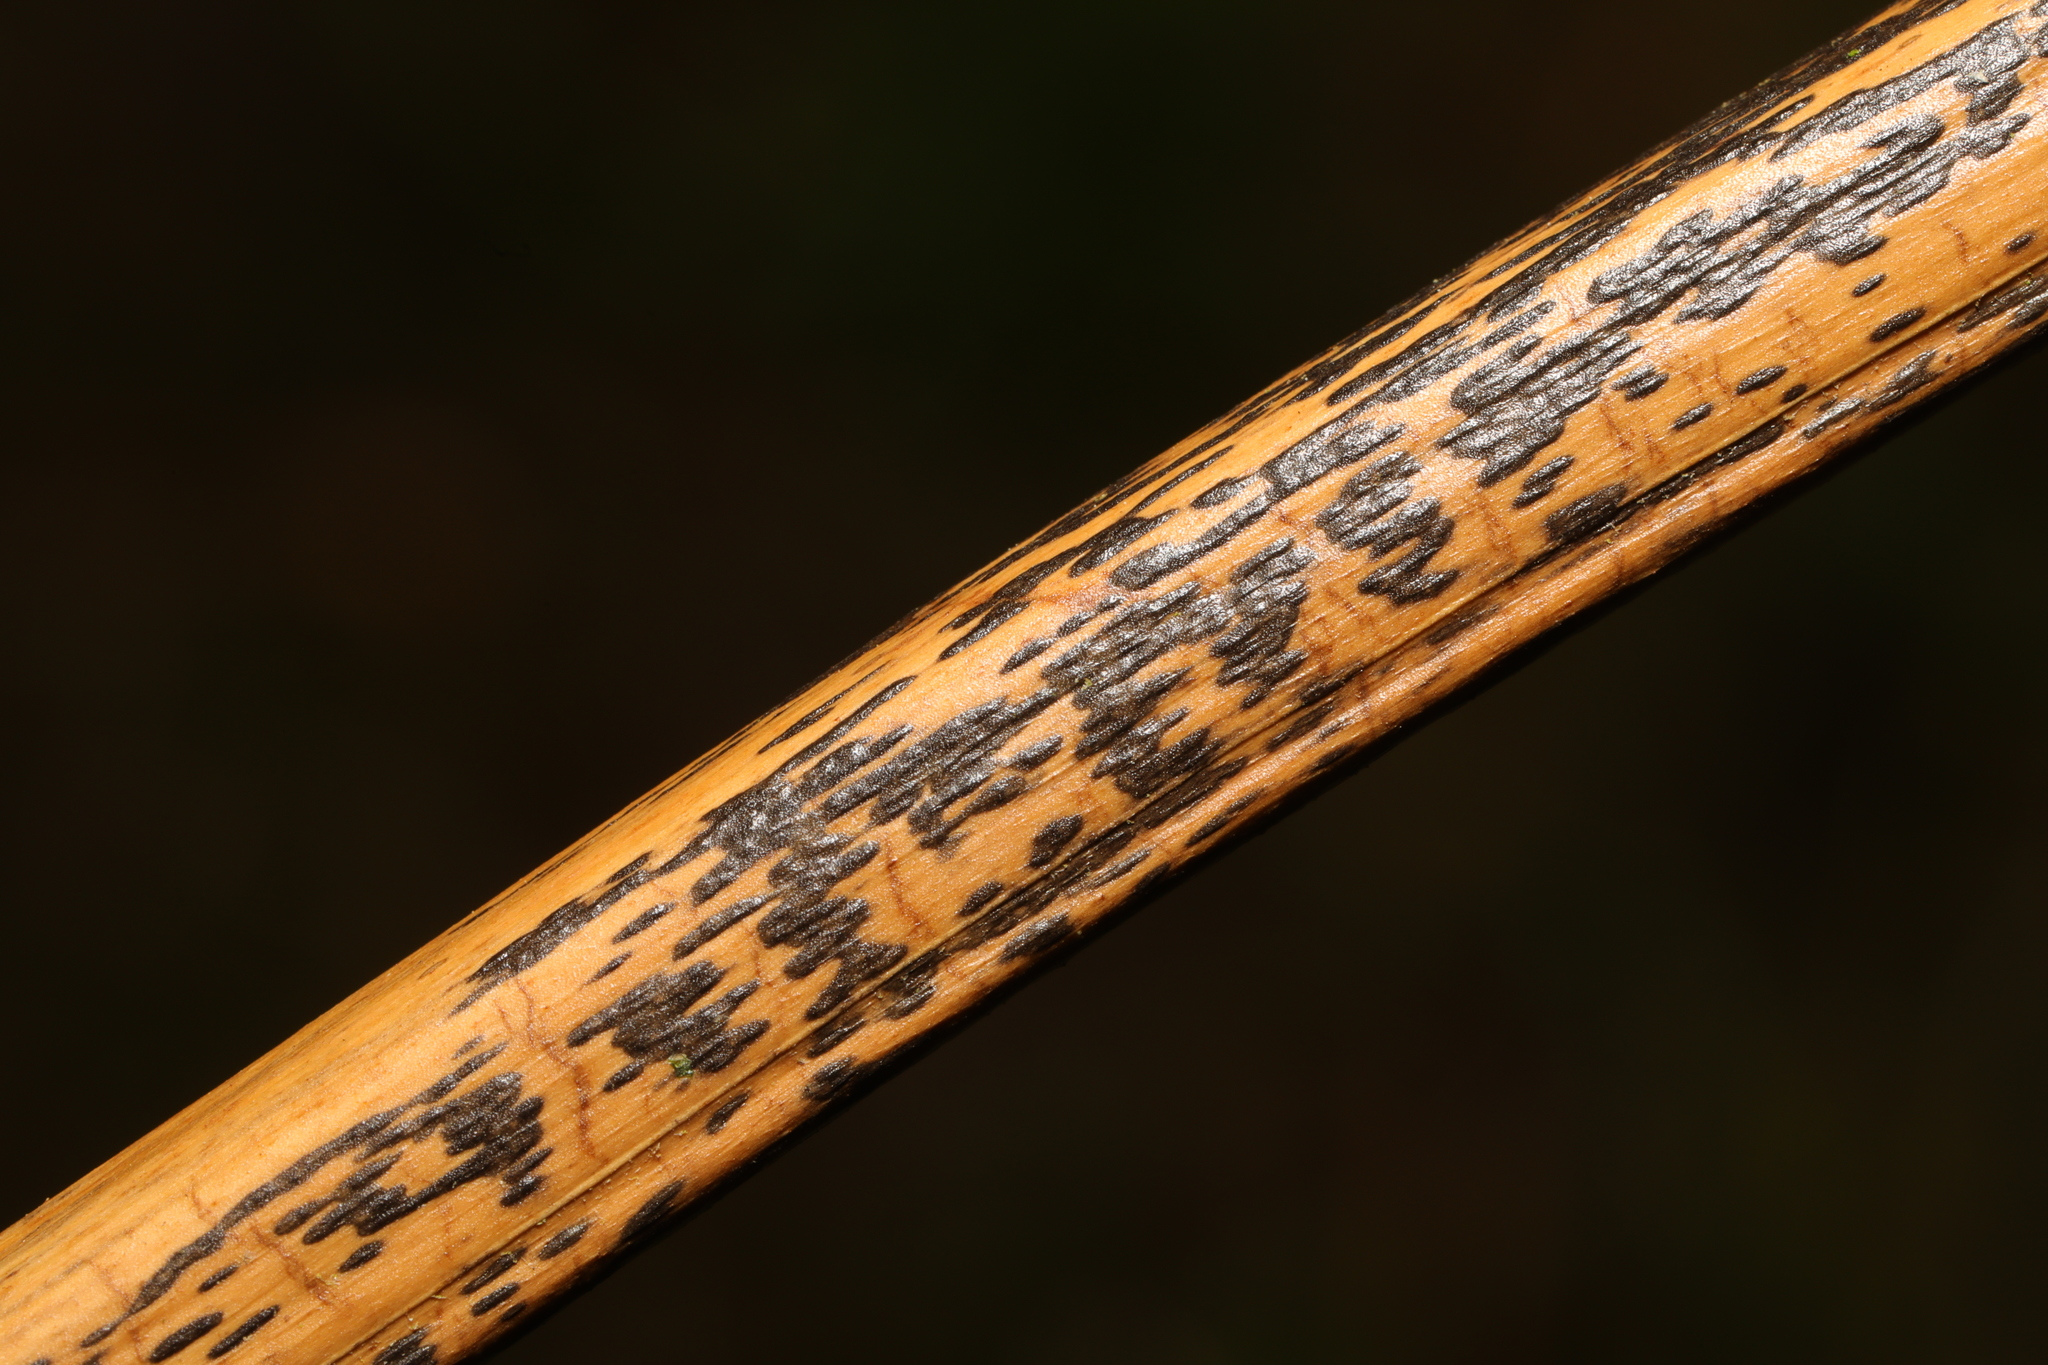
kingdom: Fungi
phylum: Ascomycota
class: Dothideomycetes
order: Pleosporales
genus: Rhopographus
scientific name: Rhopographus filicinus
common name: Bracken map
